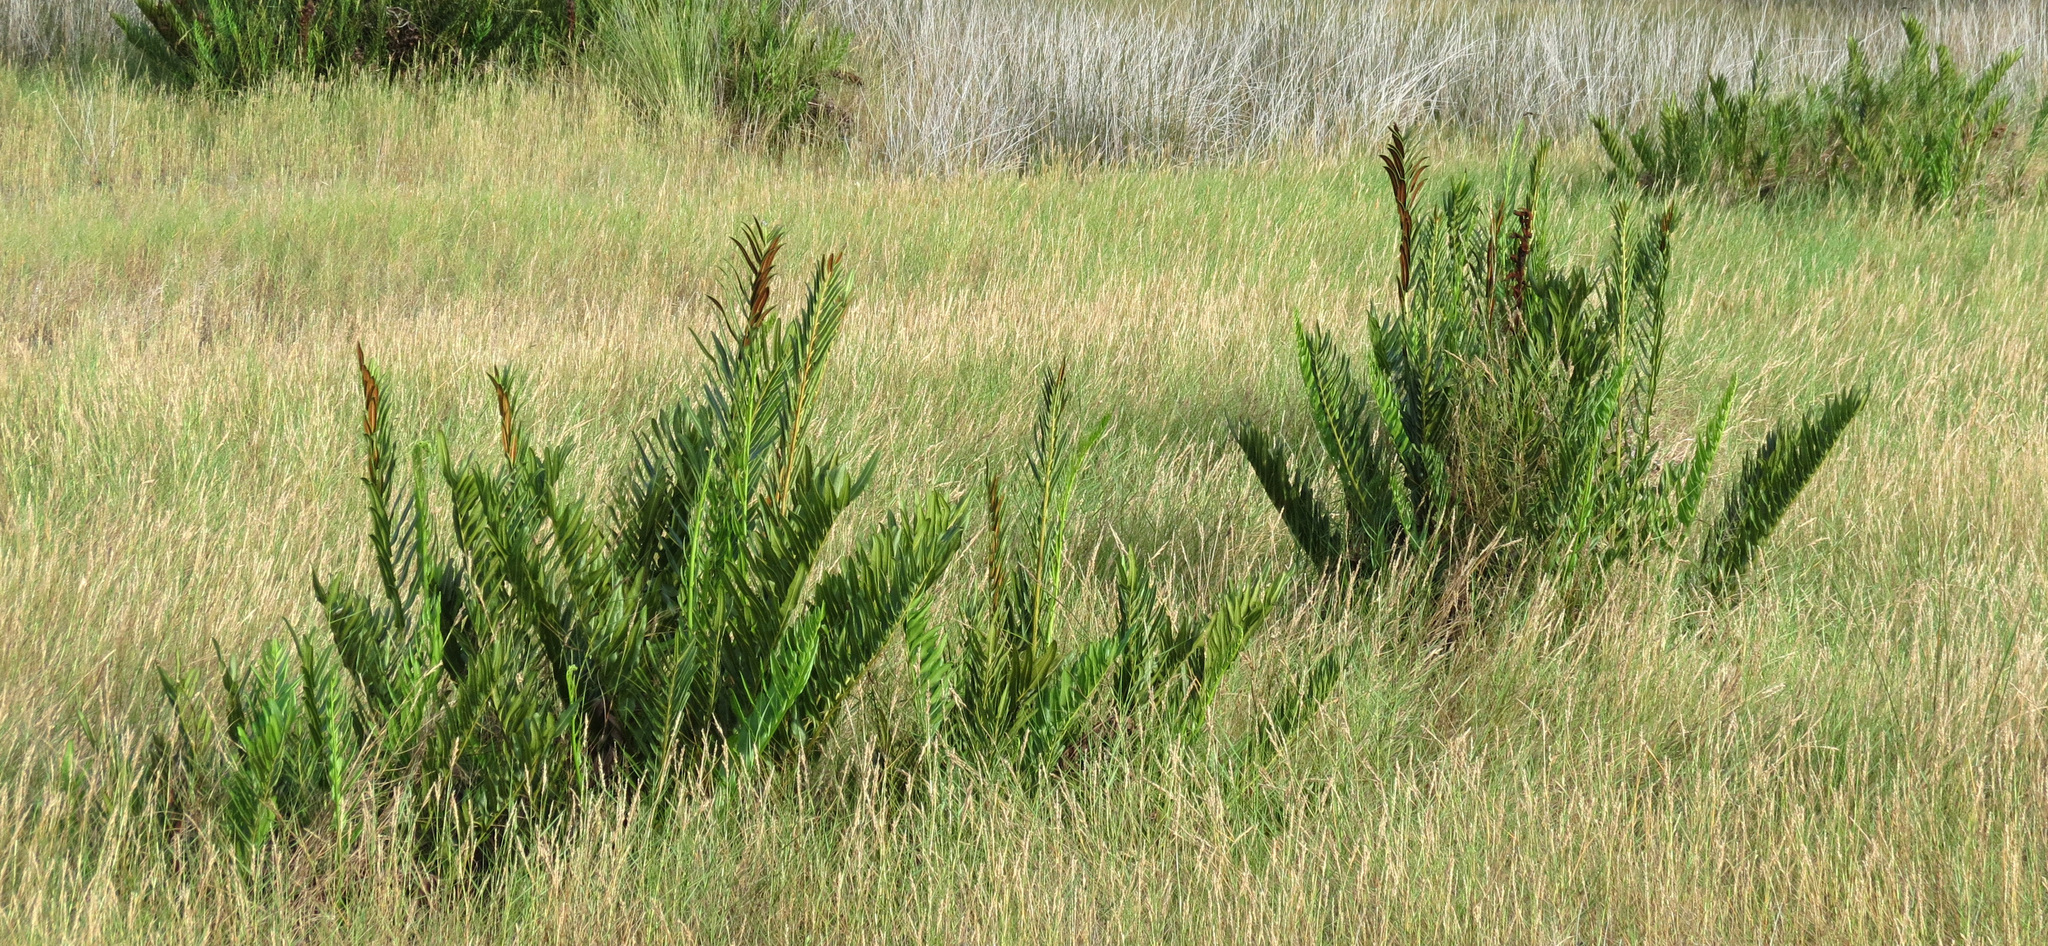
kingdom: Plantae
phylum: Tracheophyta
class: Polypodiopsida
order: Polypodiales
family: Pteridaceae
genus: Acrostichum
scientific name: Acrostichum danaeifolium
